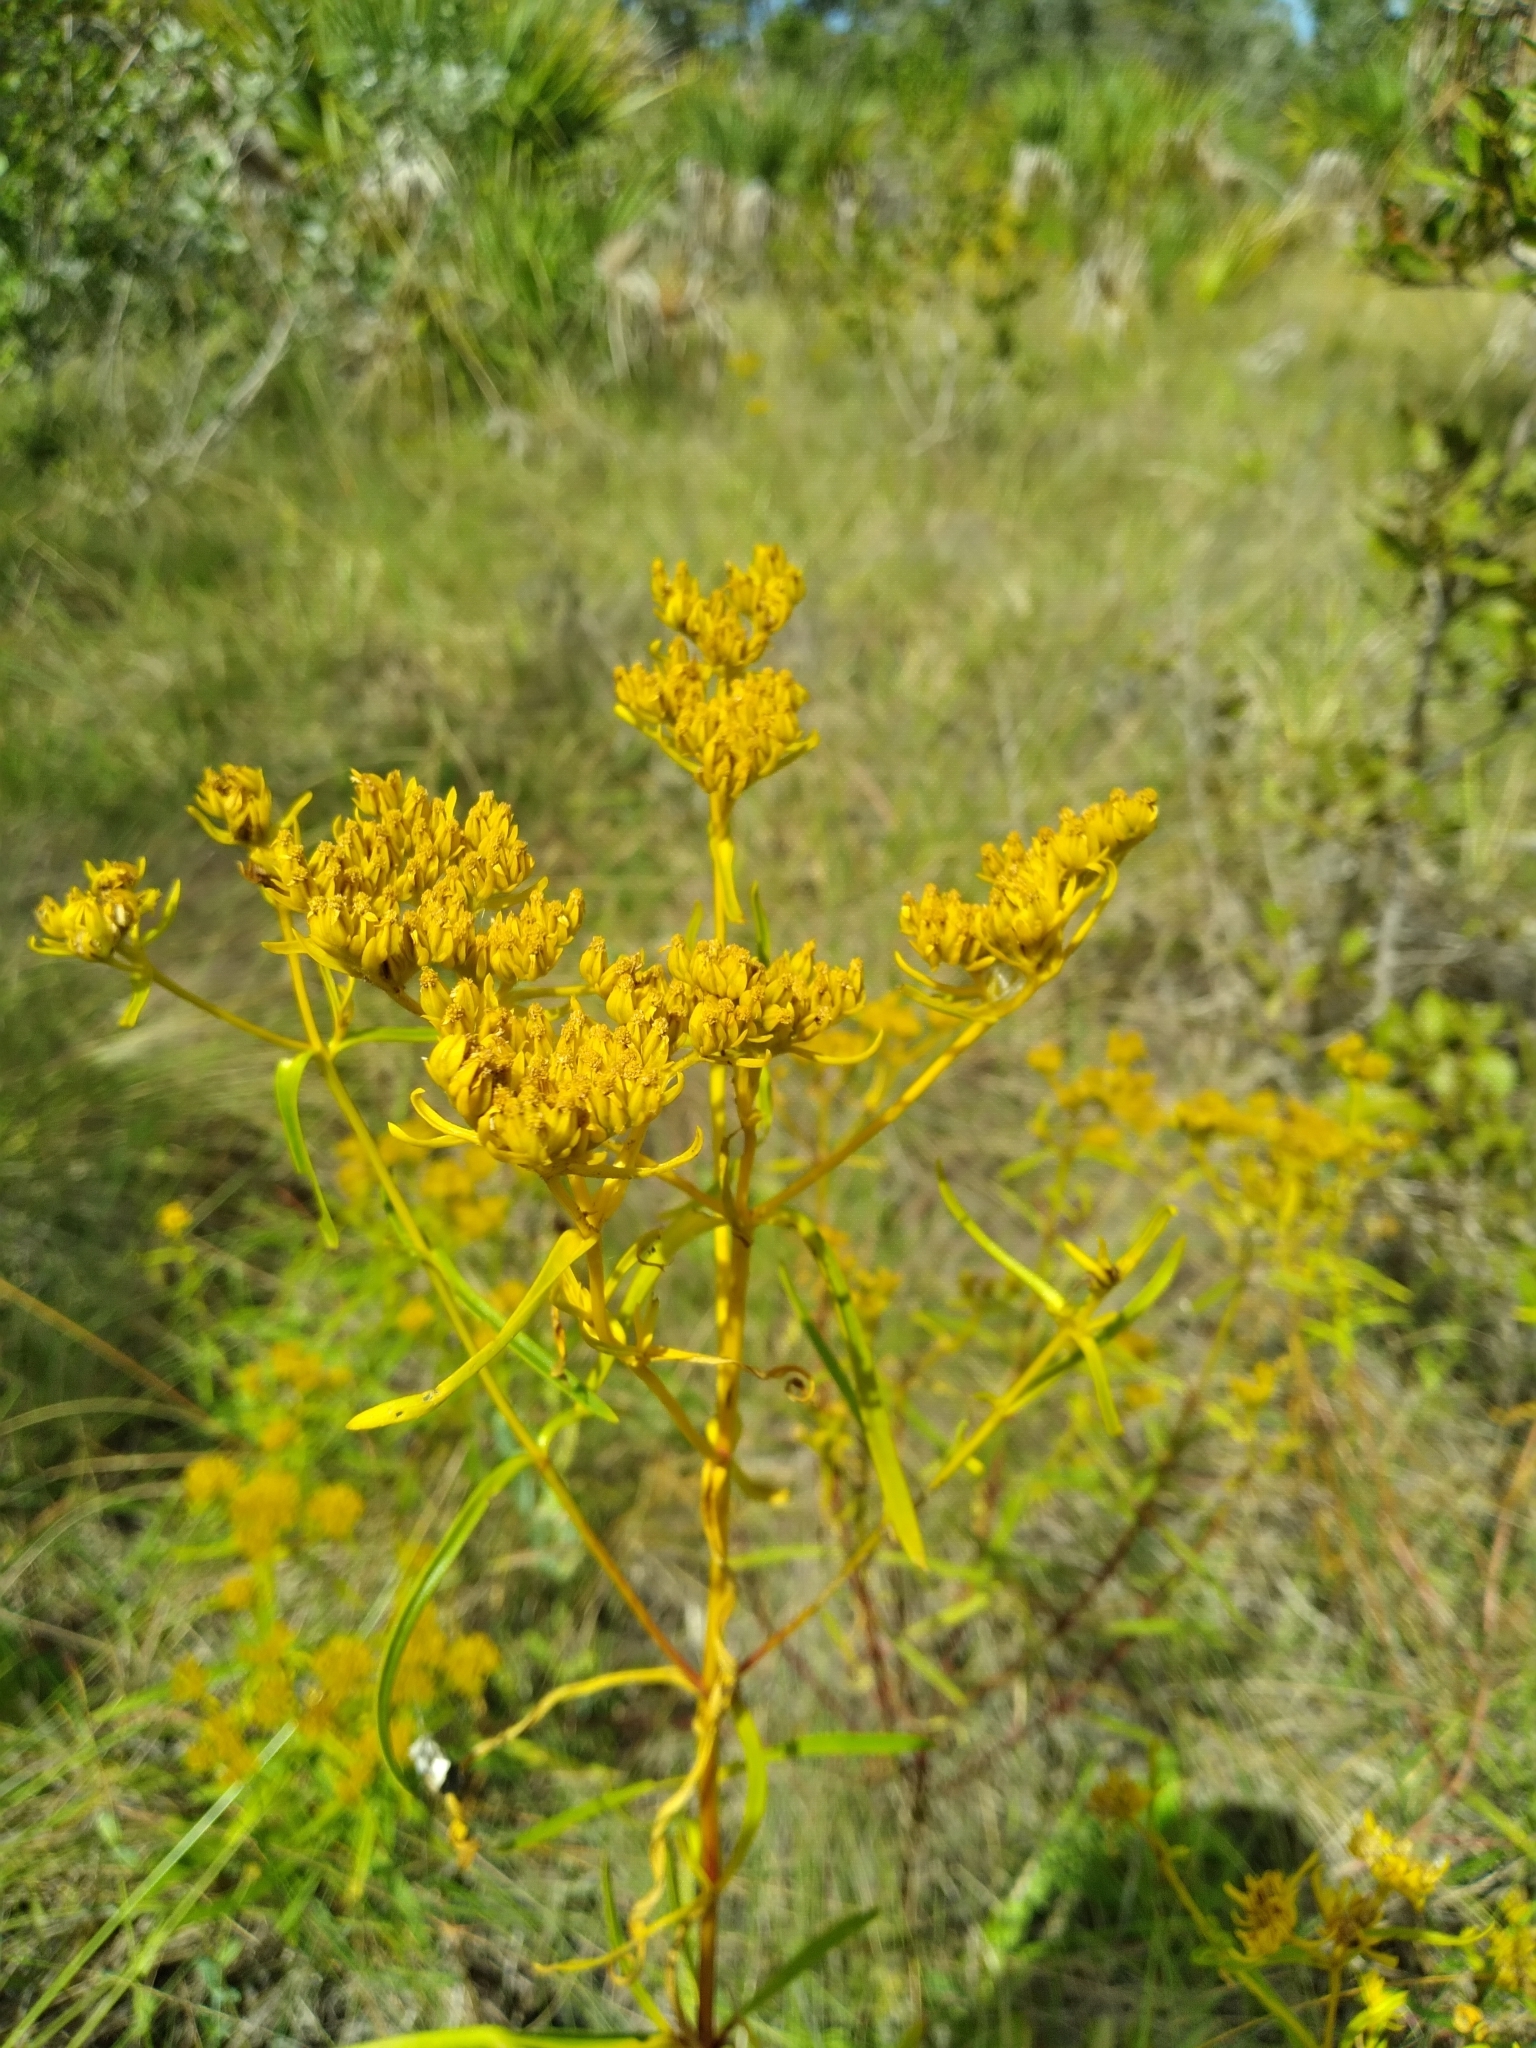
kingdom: Plantae
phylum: Tracheophyta
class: Magnoliopsida
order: Asterales
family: Asteraceae
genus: Flaveria
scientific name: Flaveria floridana
